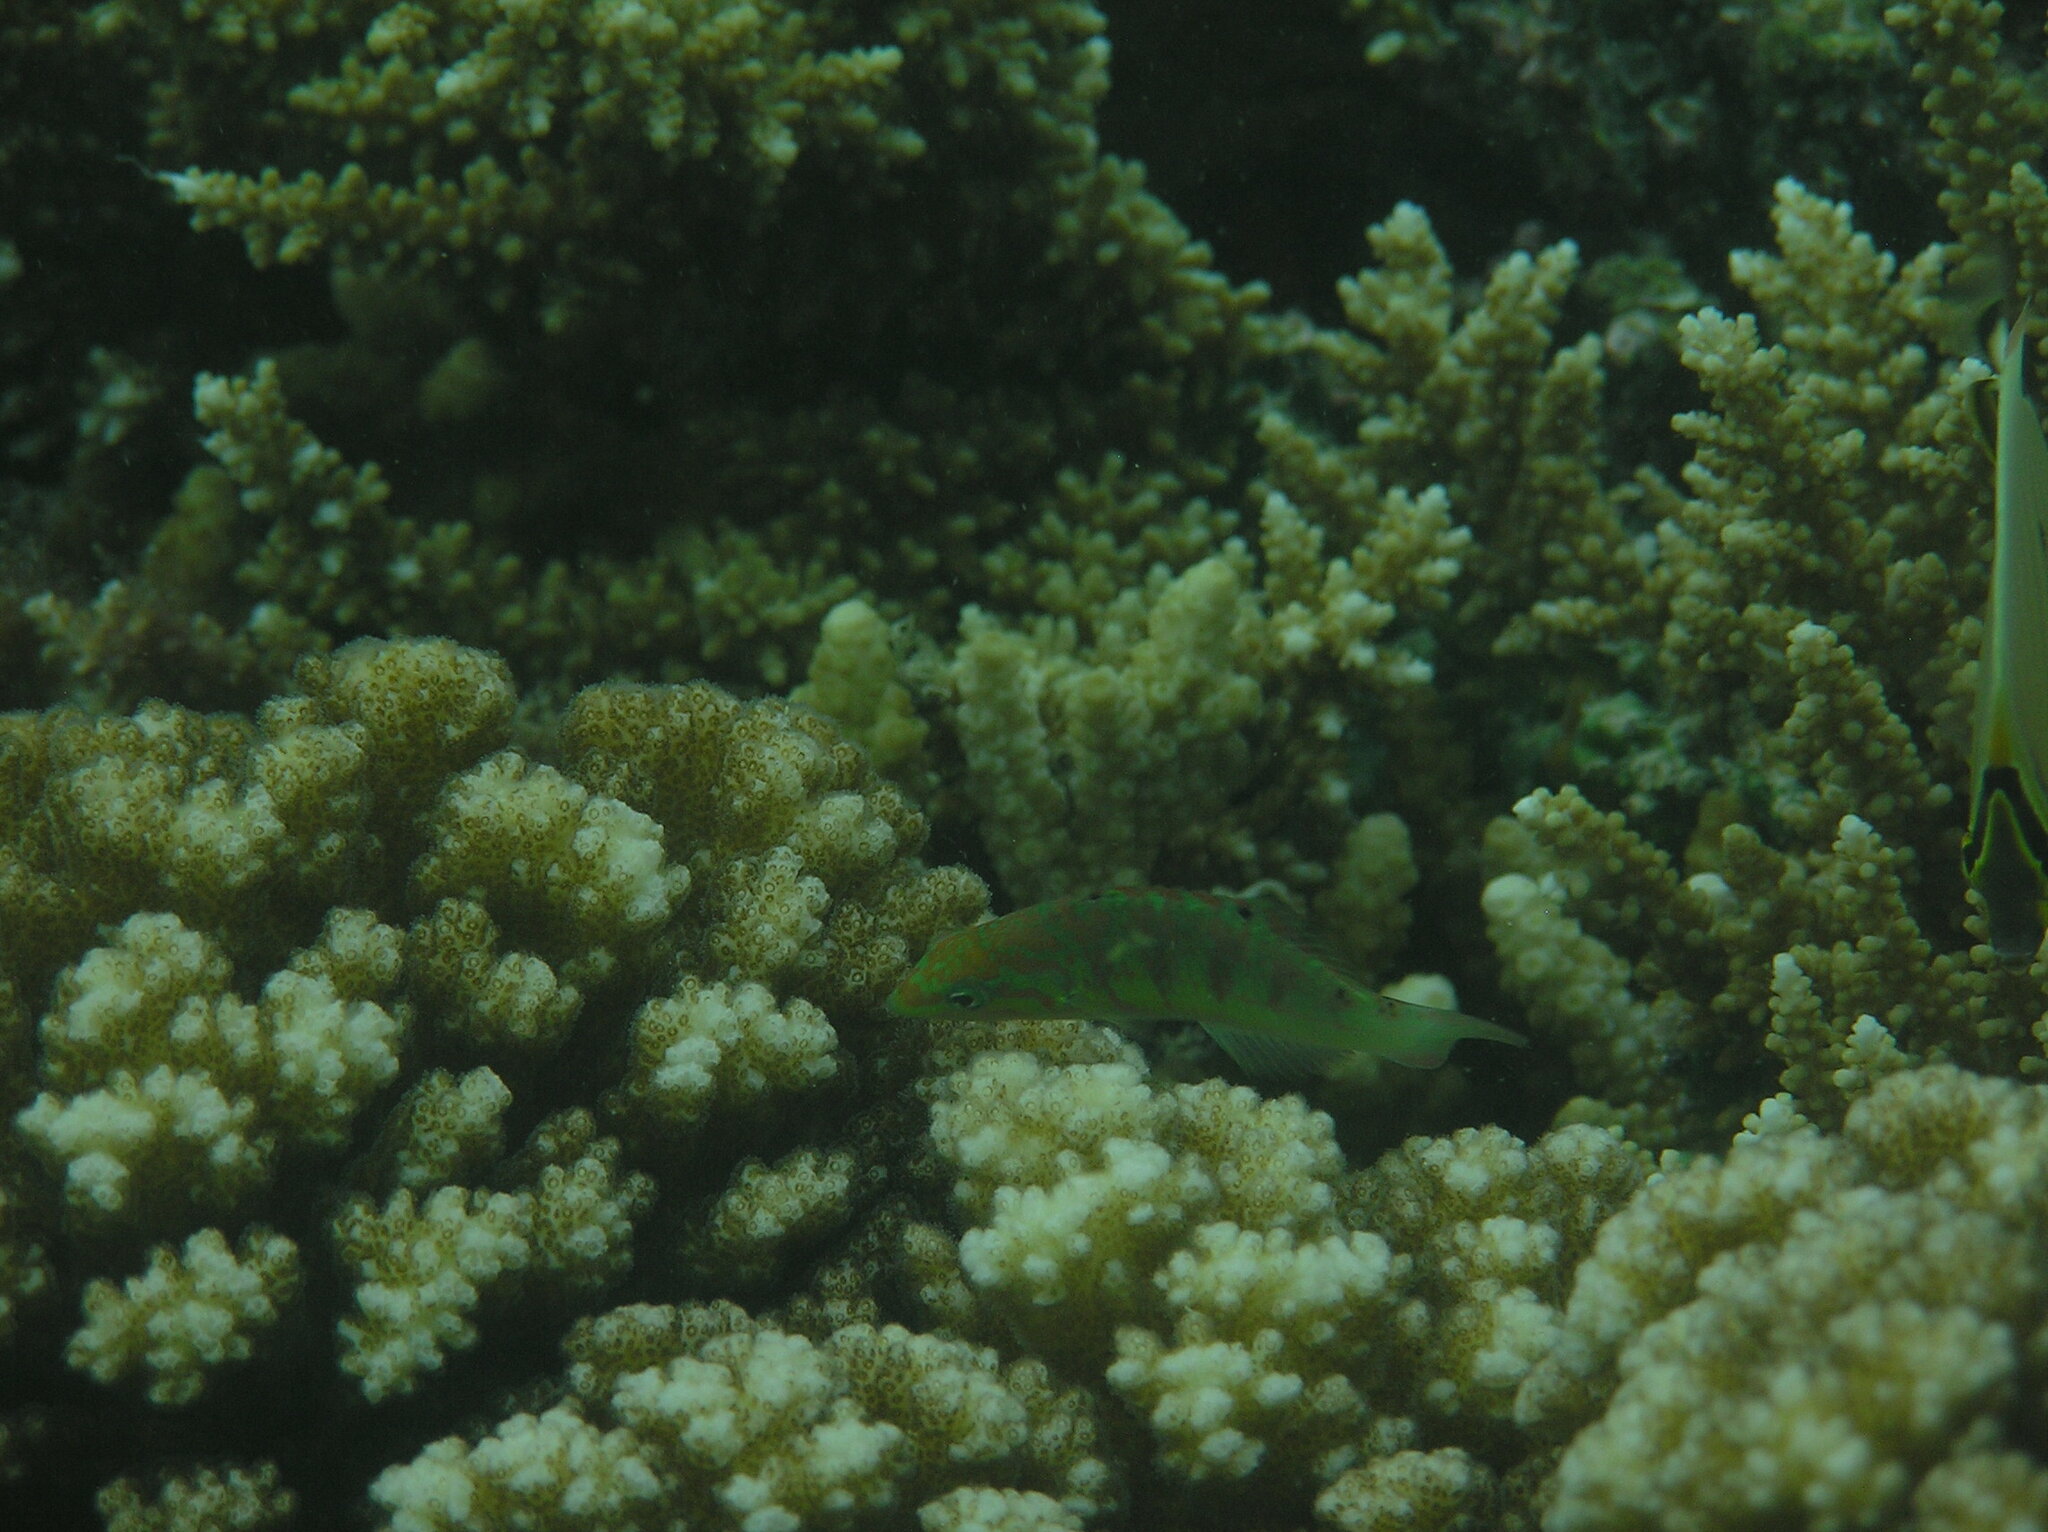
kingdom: Animalia
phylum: Chordata
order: Perciformes
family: Labridae
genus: Thalassoma
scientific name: Thalassoma hardwicke
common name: Sixbar wrasse
